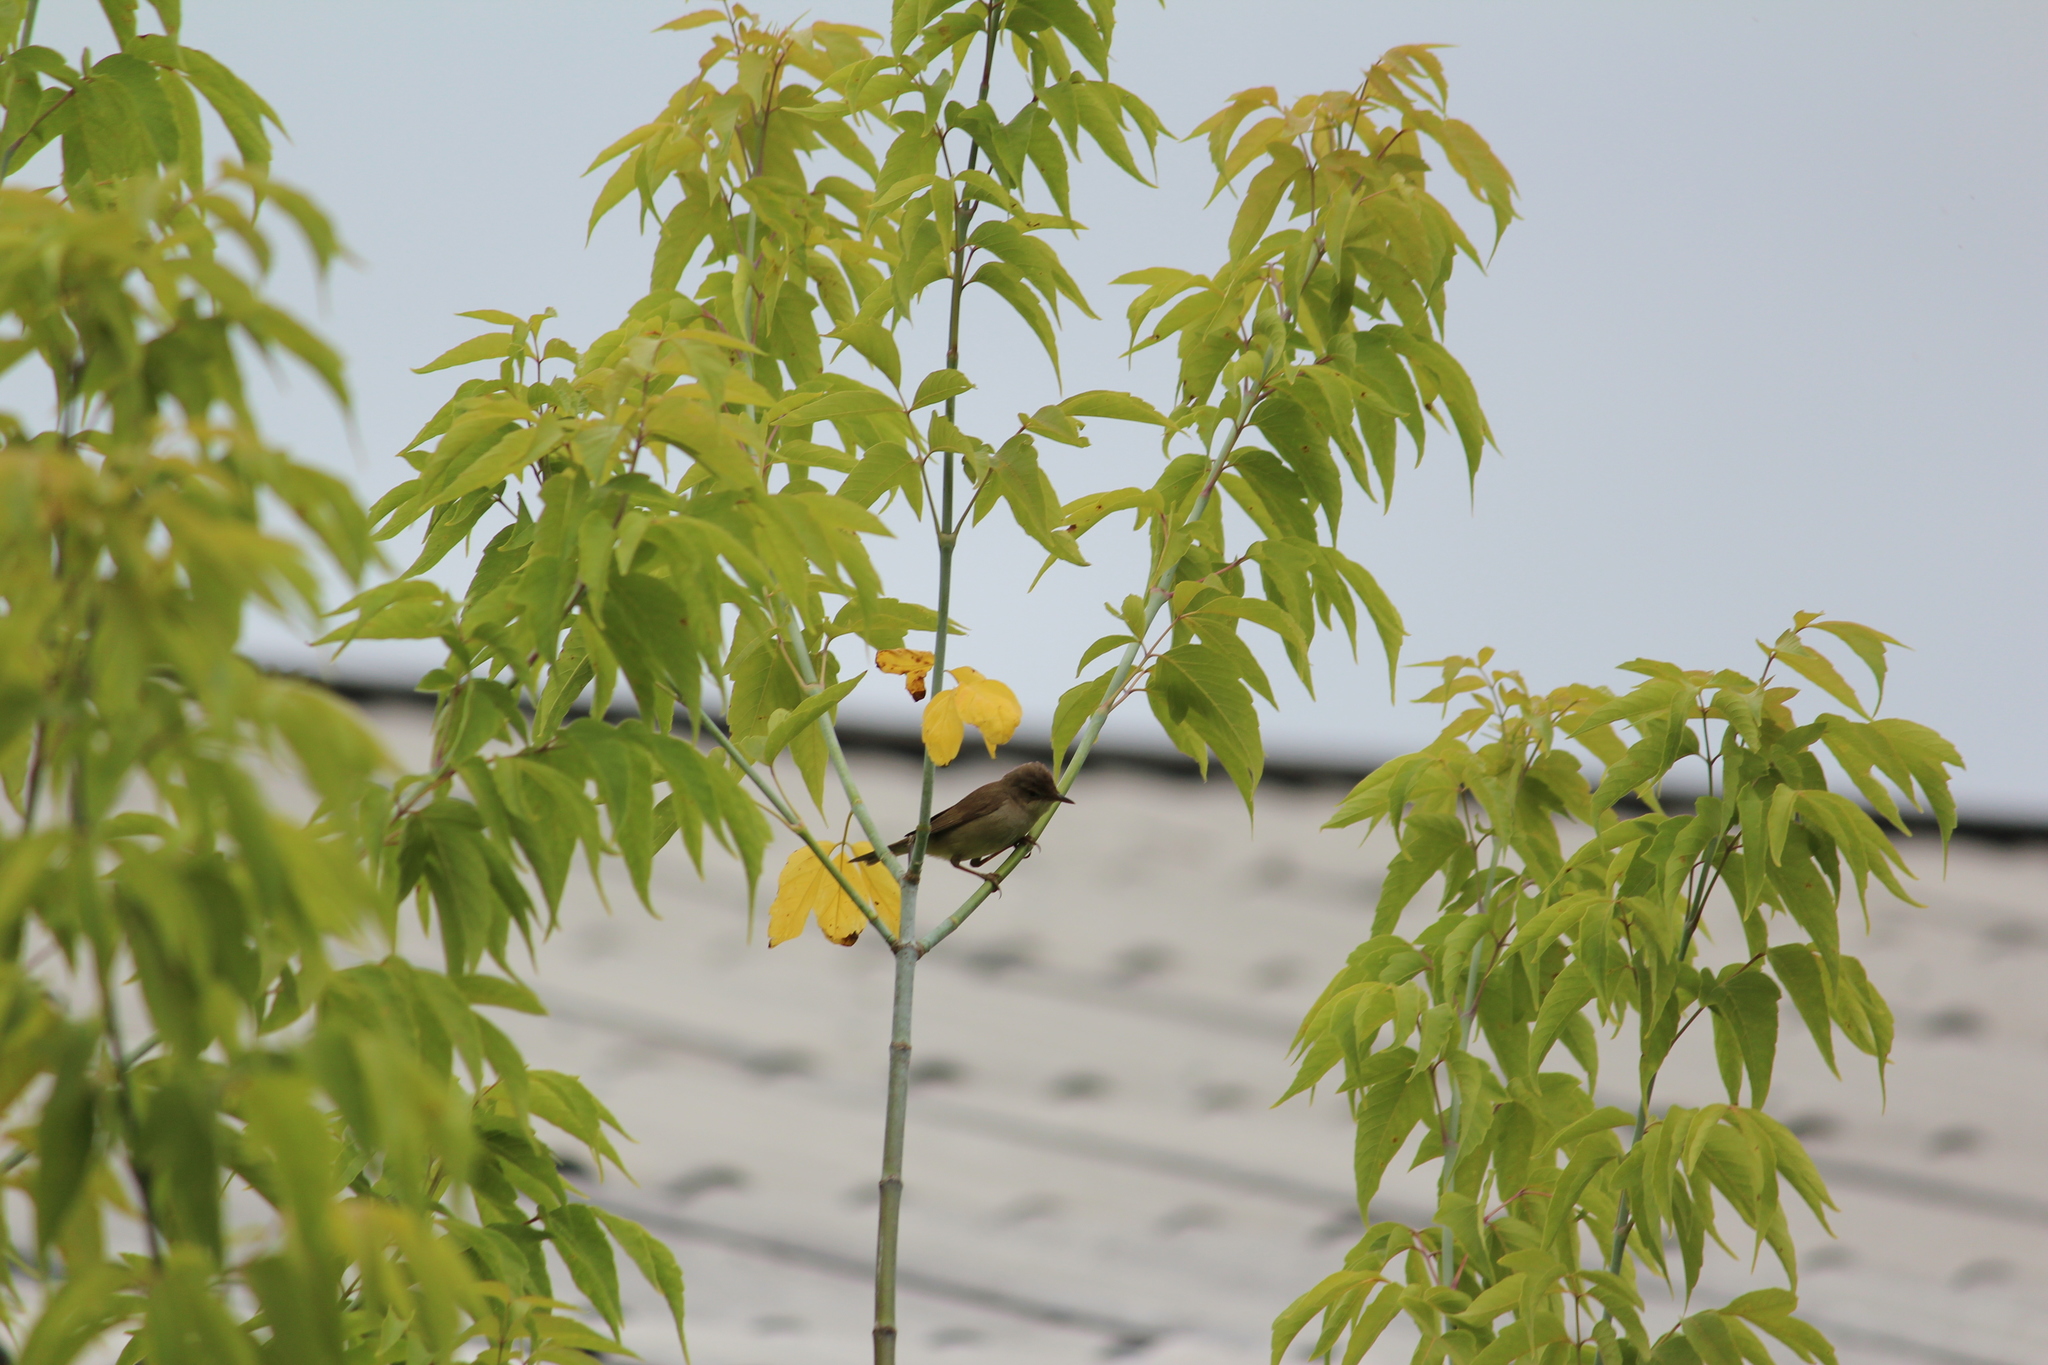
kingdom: Animalia
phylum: Chordata
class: Aves
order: Passeriformes
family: Acrocephalidae
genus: Acrocephalus
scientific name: Acrocephalus dumetorum
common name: Blyth's reed warbler
